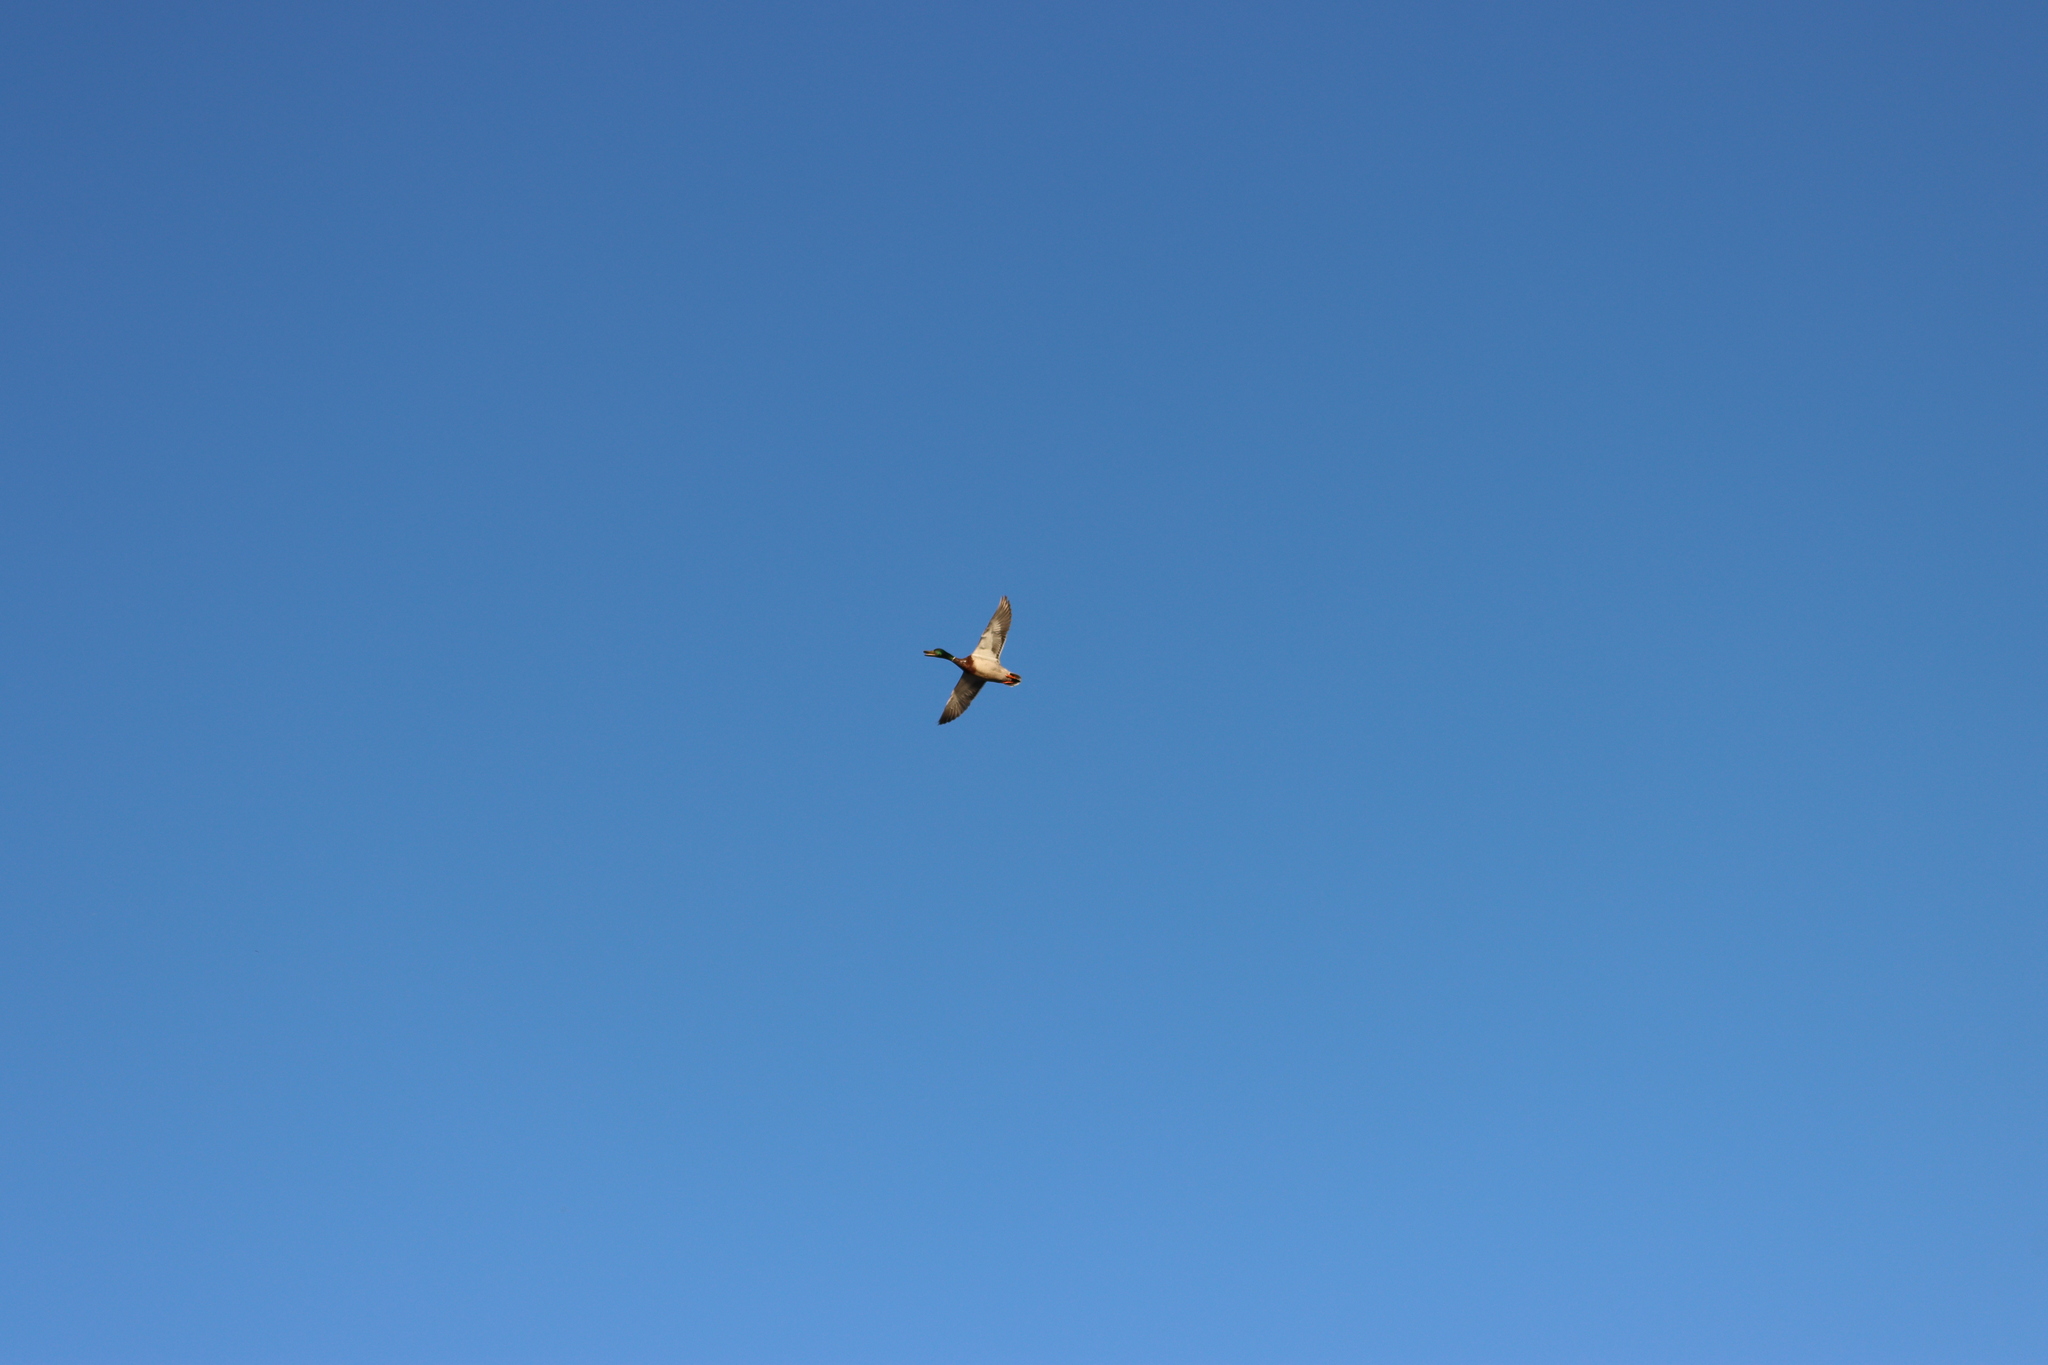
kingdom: Animalia
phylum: Chordata
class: Aves
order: Anseriformes
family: Anatidae
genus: Anas
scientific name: Anas platyrhynchos
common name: Mallard
